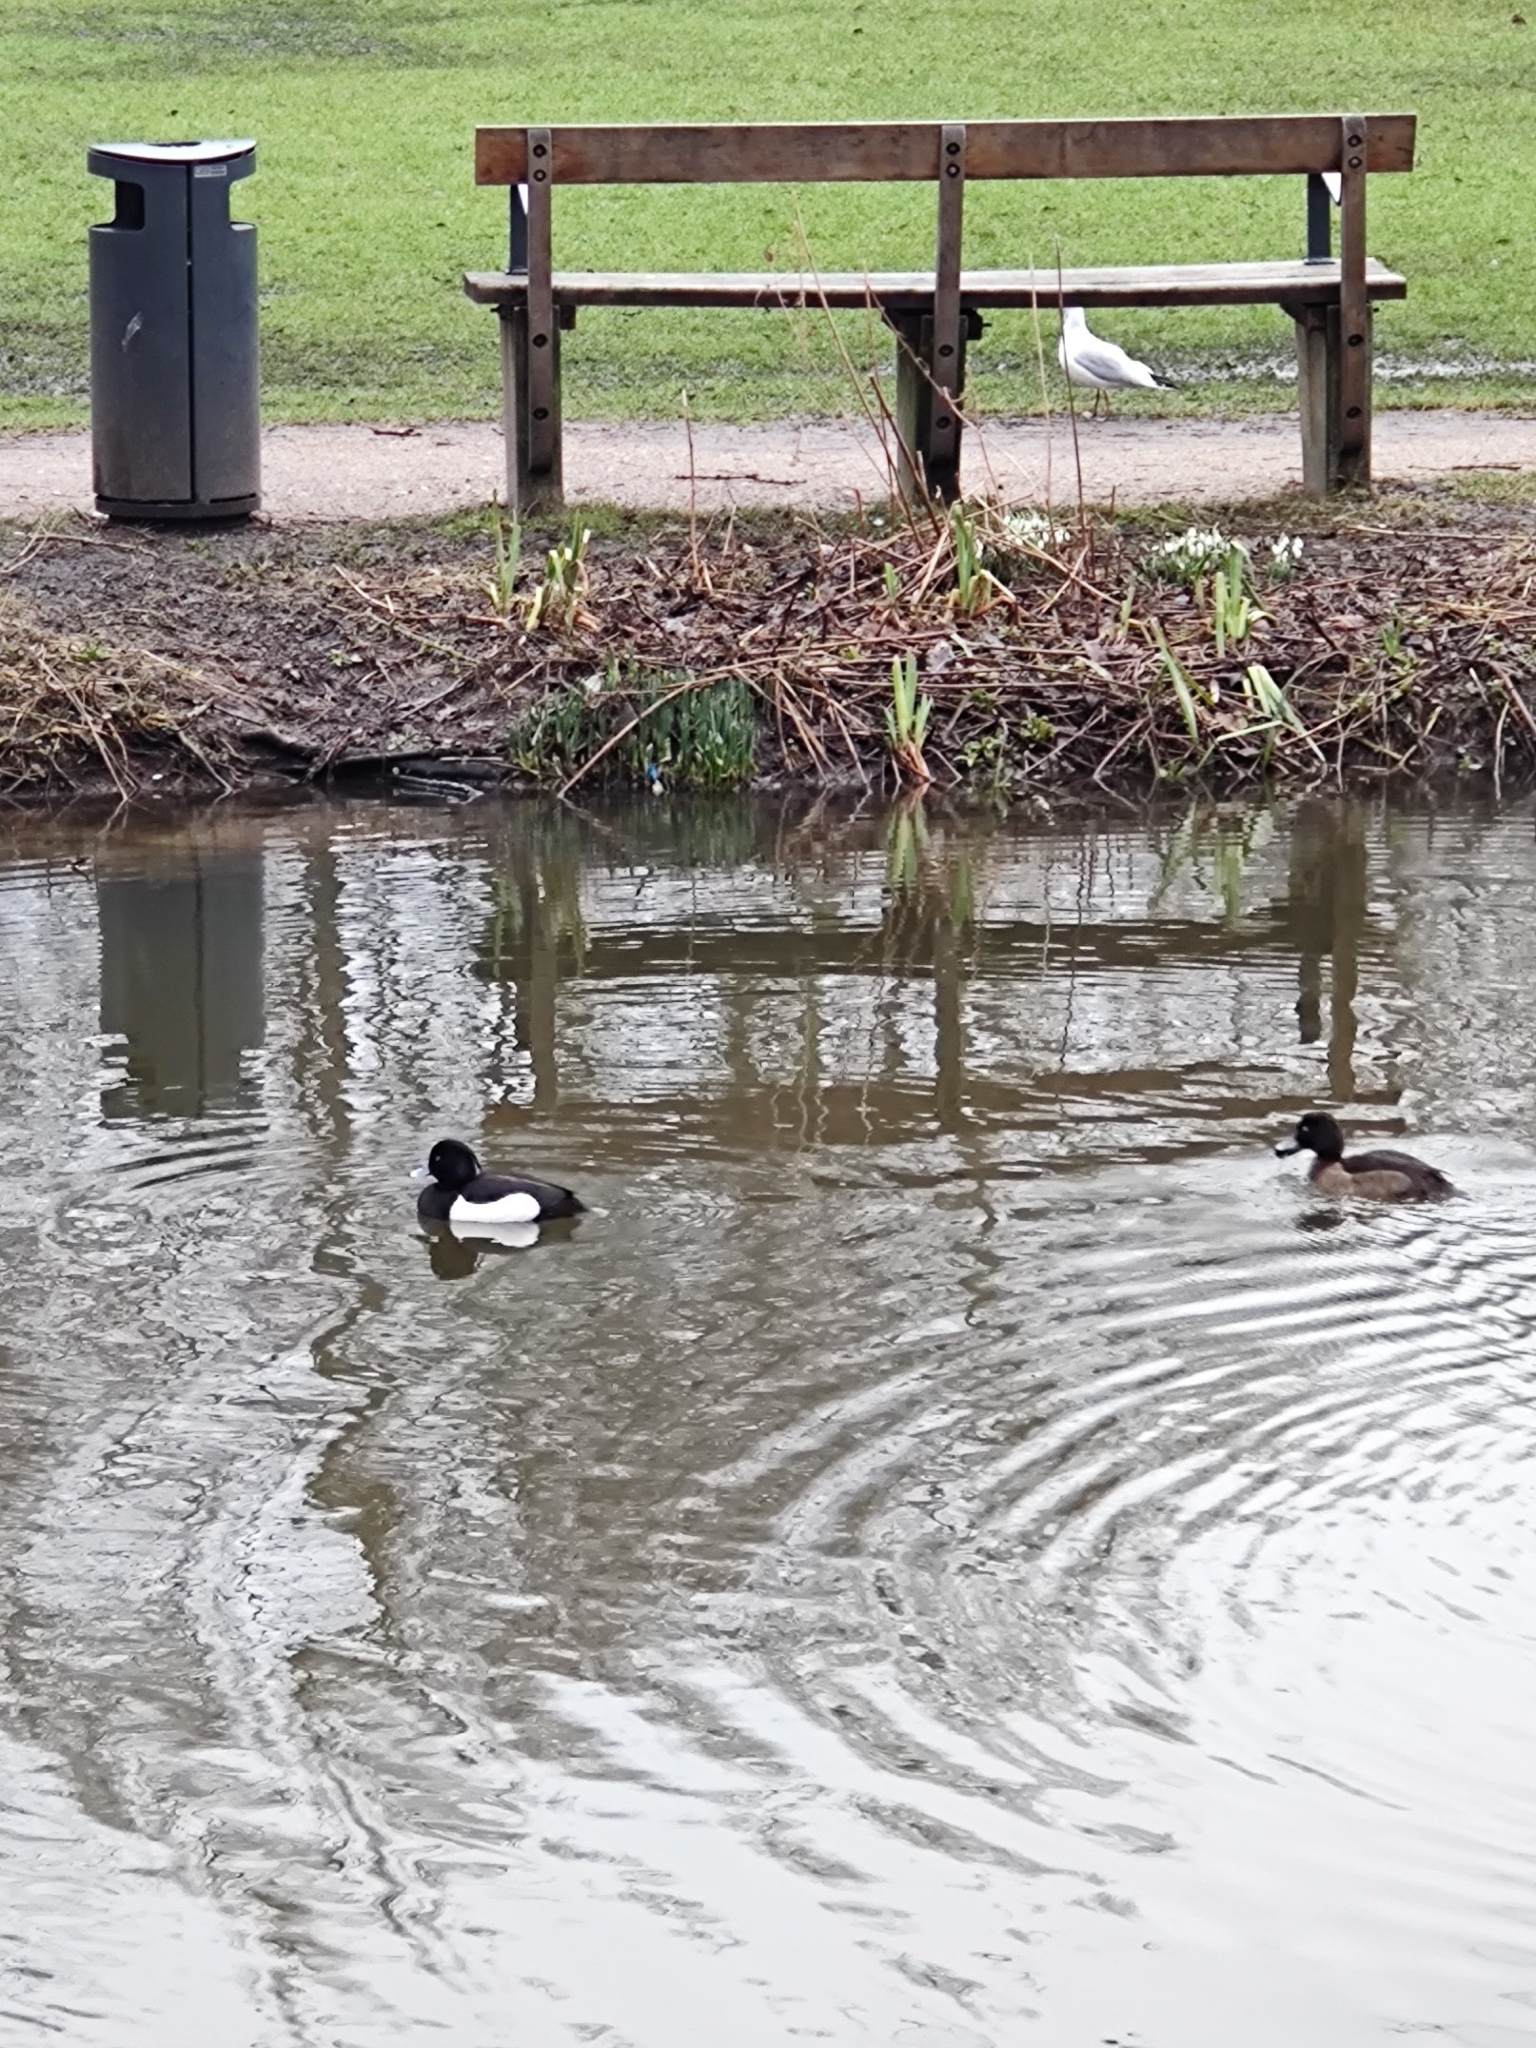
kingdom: Animalia
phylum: Chordata
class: Aves
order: Anseriformes
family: Anatidae
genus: Aythya
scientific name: Aythya fuligula
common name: Tufted duck
